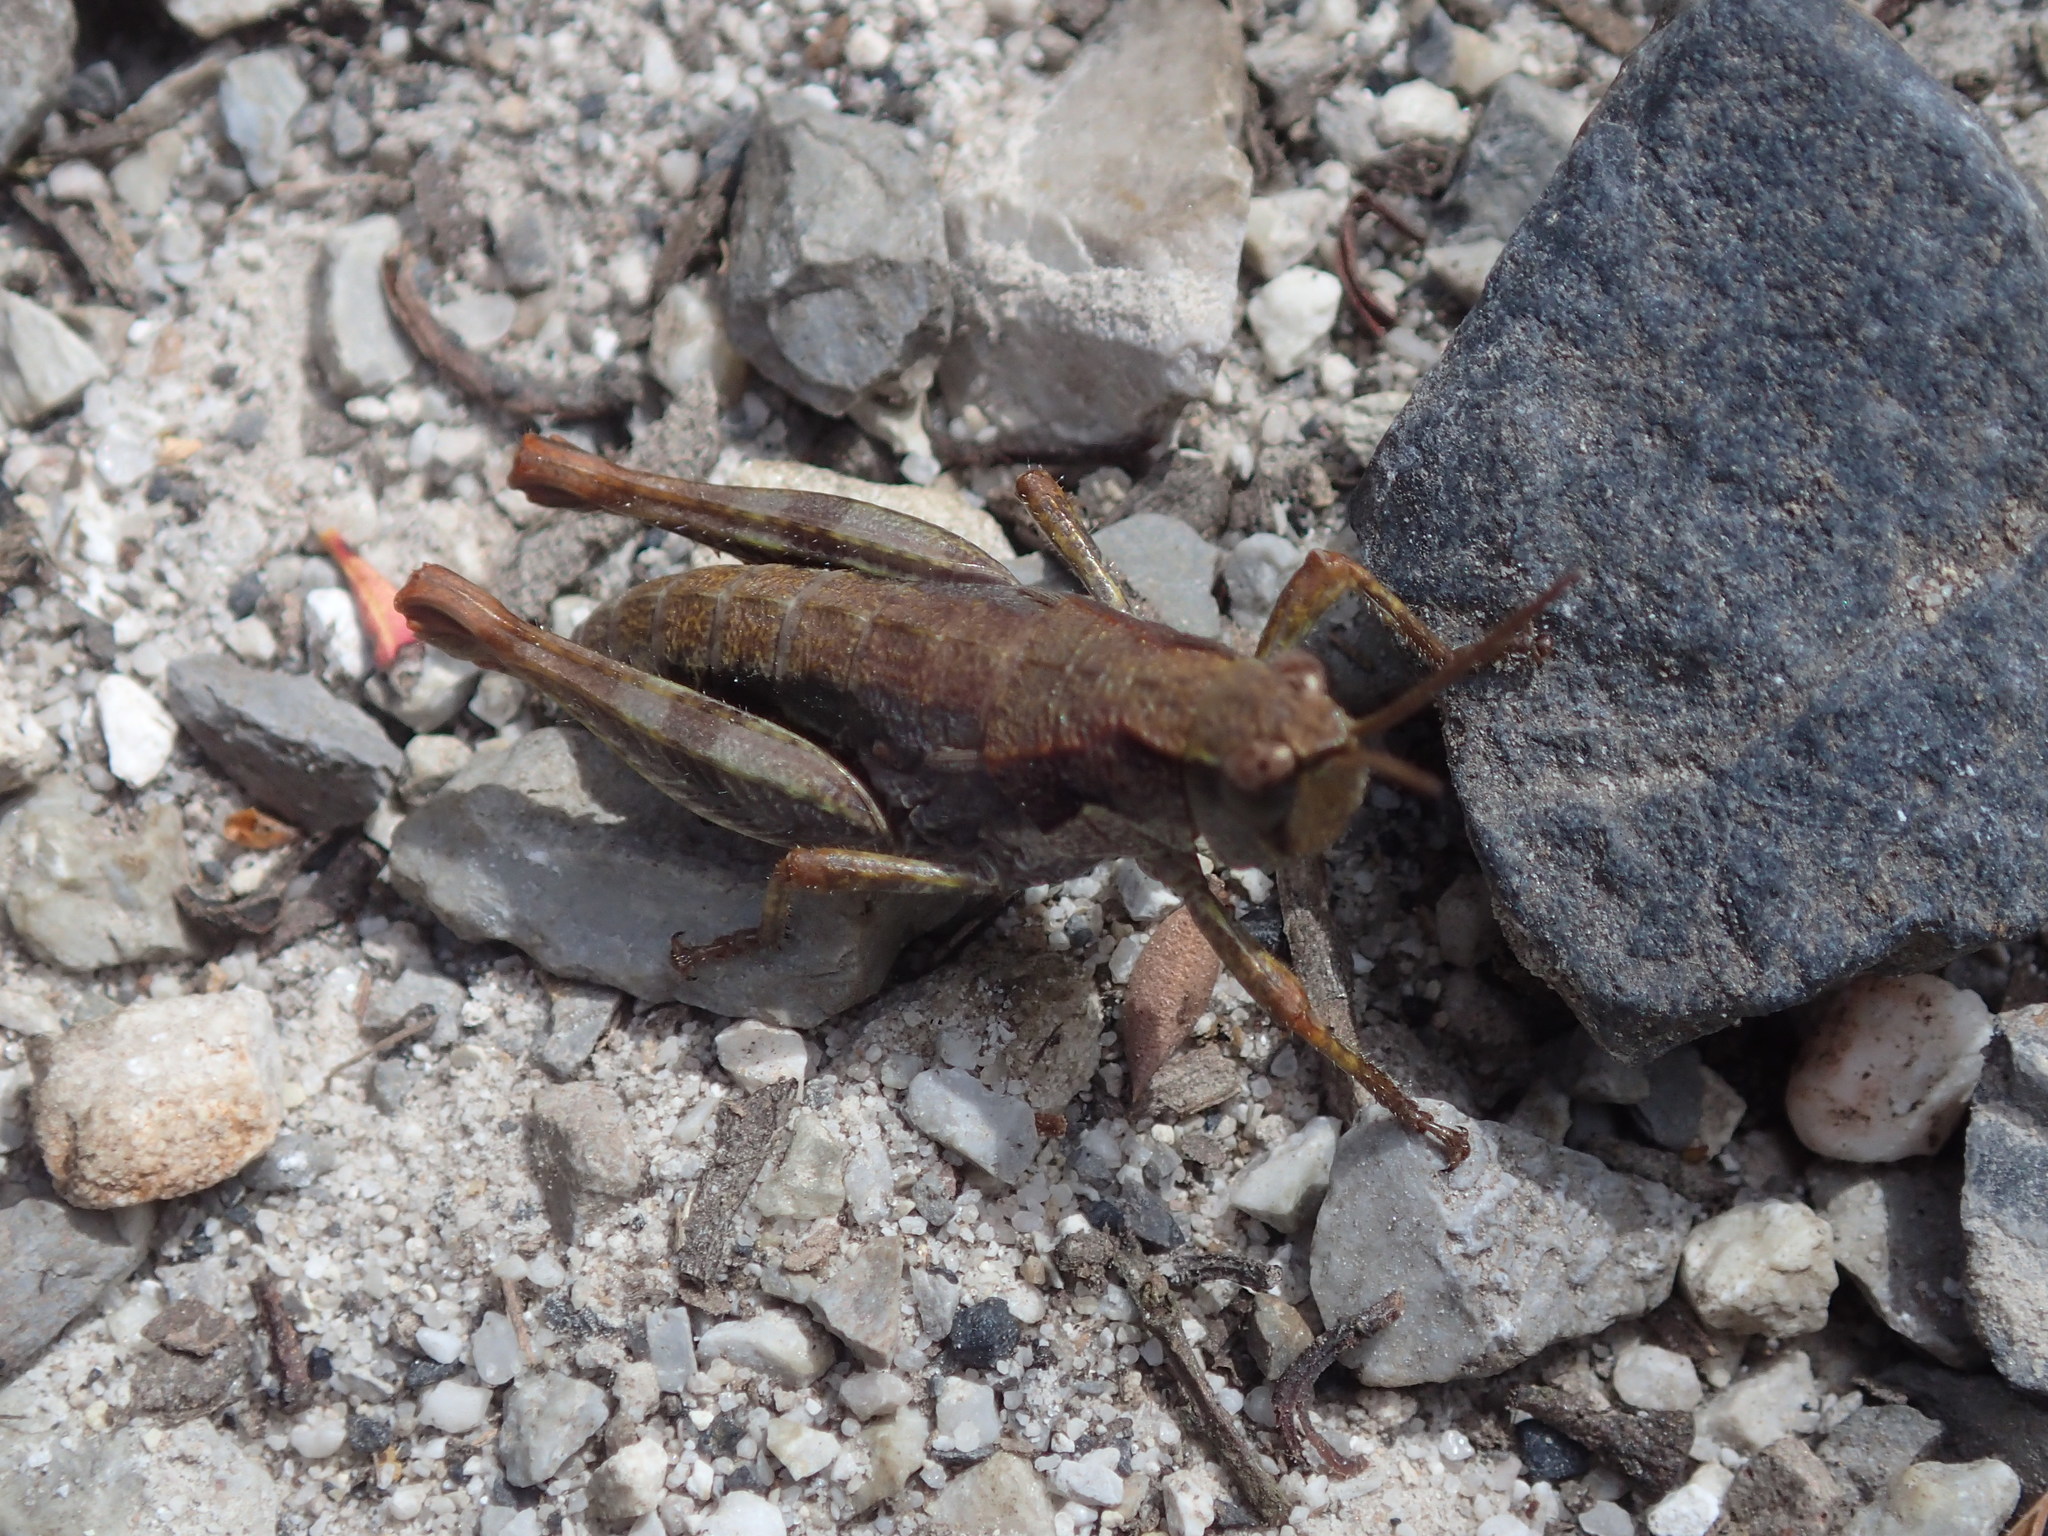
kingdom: Animalia
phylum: Arthropoda
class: Insecta
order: Orthoptera
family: Acrididae
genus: Tasmaniacris
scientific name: Tasmaniacris tasmaniensis
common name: Tasmanian grasshopper
